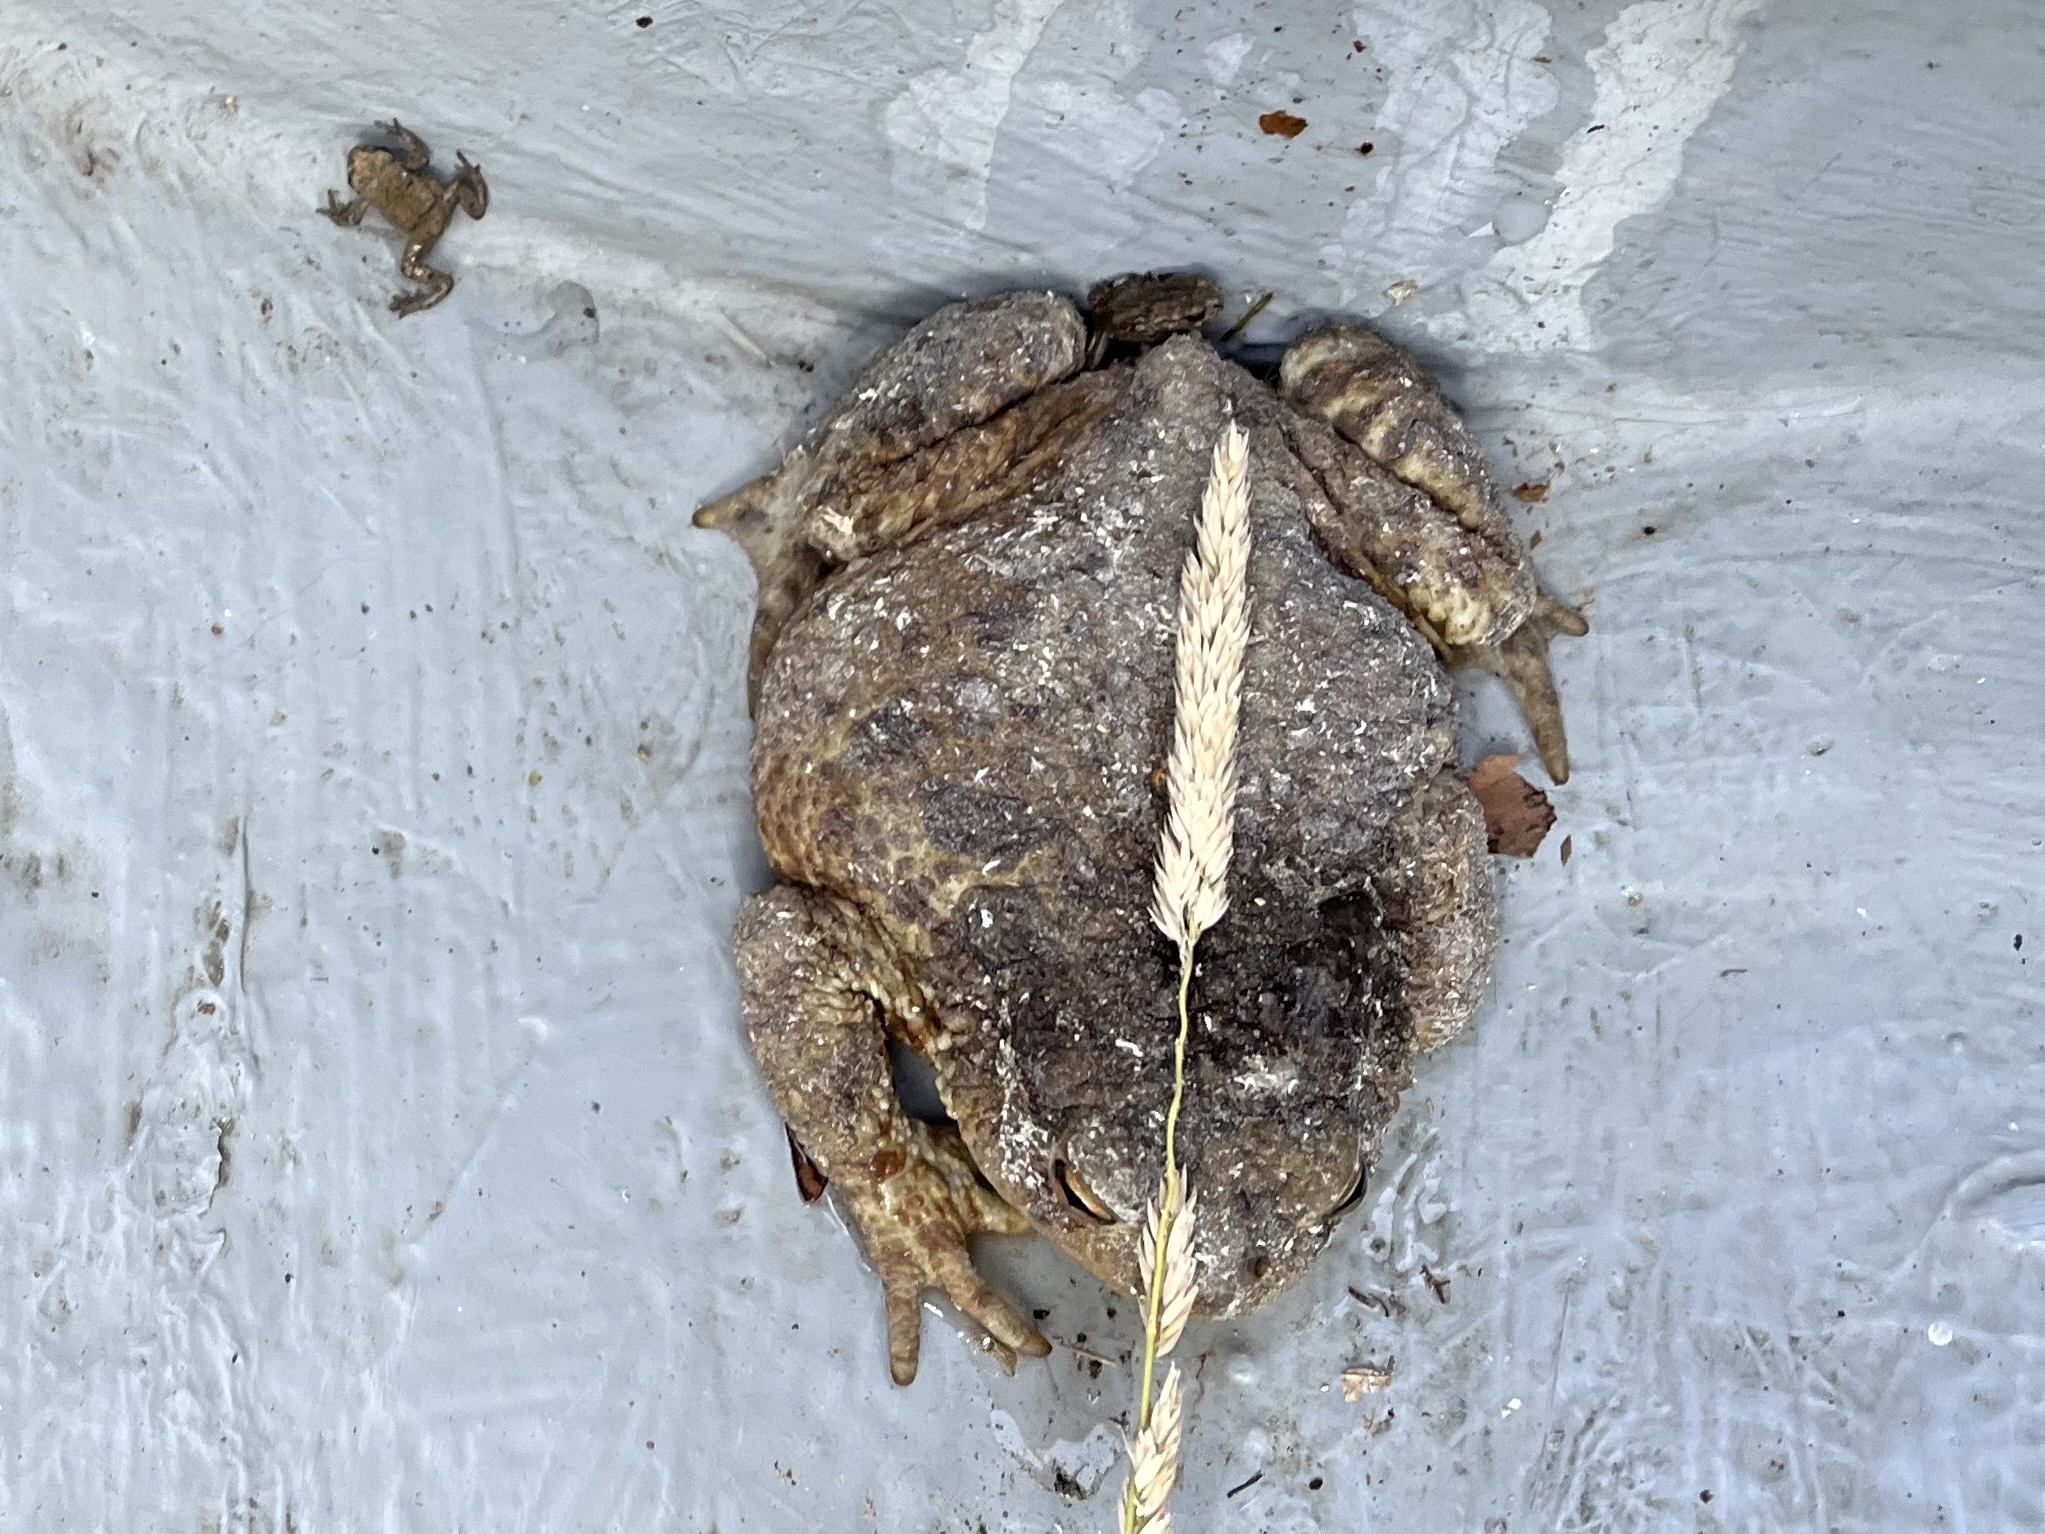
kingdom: Animalia
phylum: Chordata
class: Amphibia
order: Anura
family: Bufonidae
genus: Bufo
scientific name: Bufo bufo
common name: Common toad
